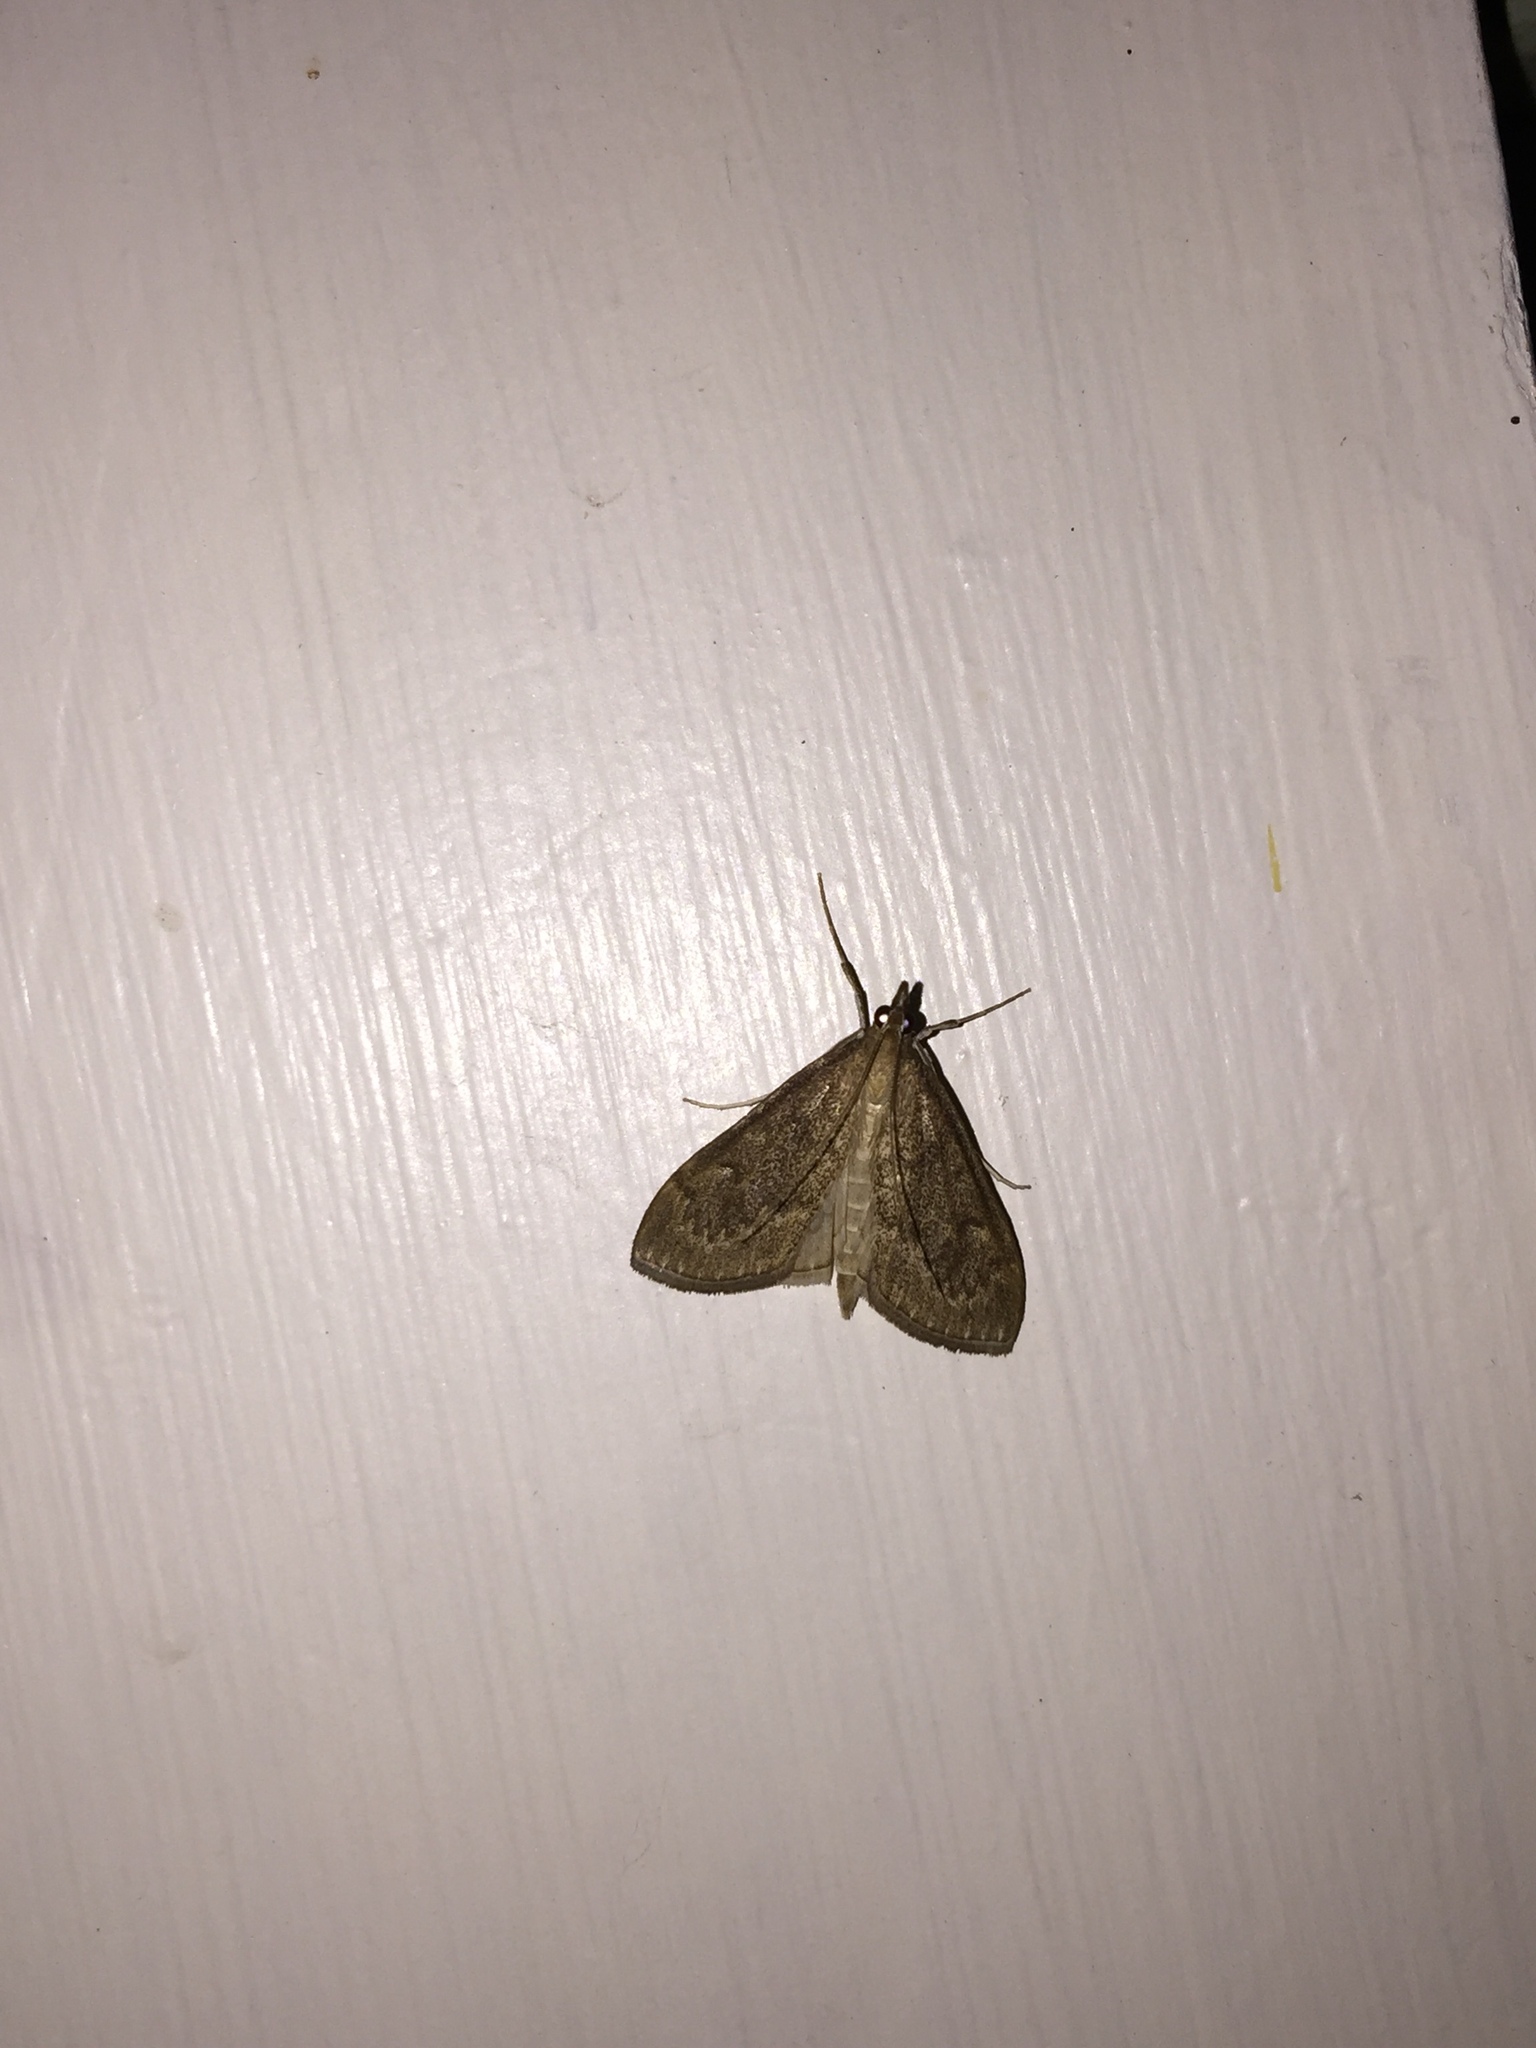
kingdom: Animalia
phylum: Arthropoda
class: Insecta
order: Lepidoptera
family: Crambidae
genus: Saucrobotys
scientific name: Saucrobotys futilalis
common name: Dogbane saucrobotys moth
